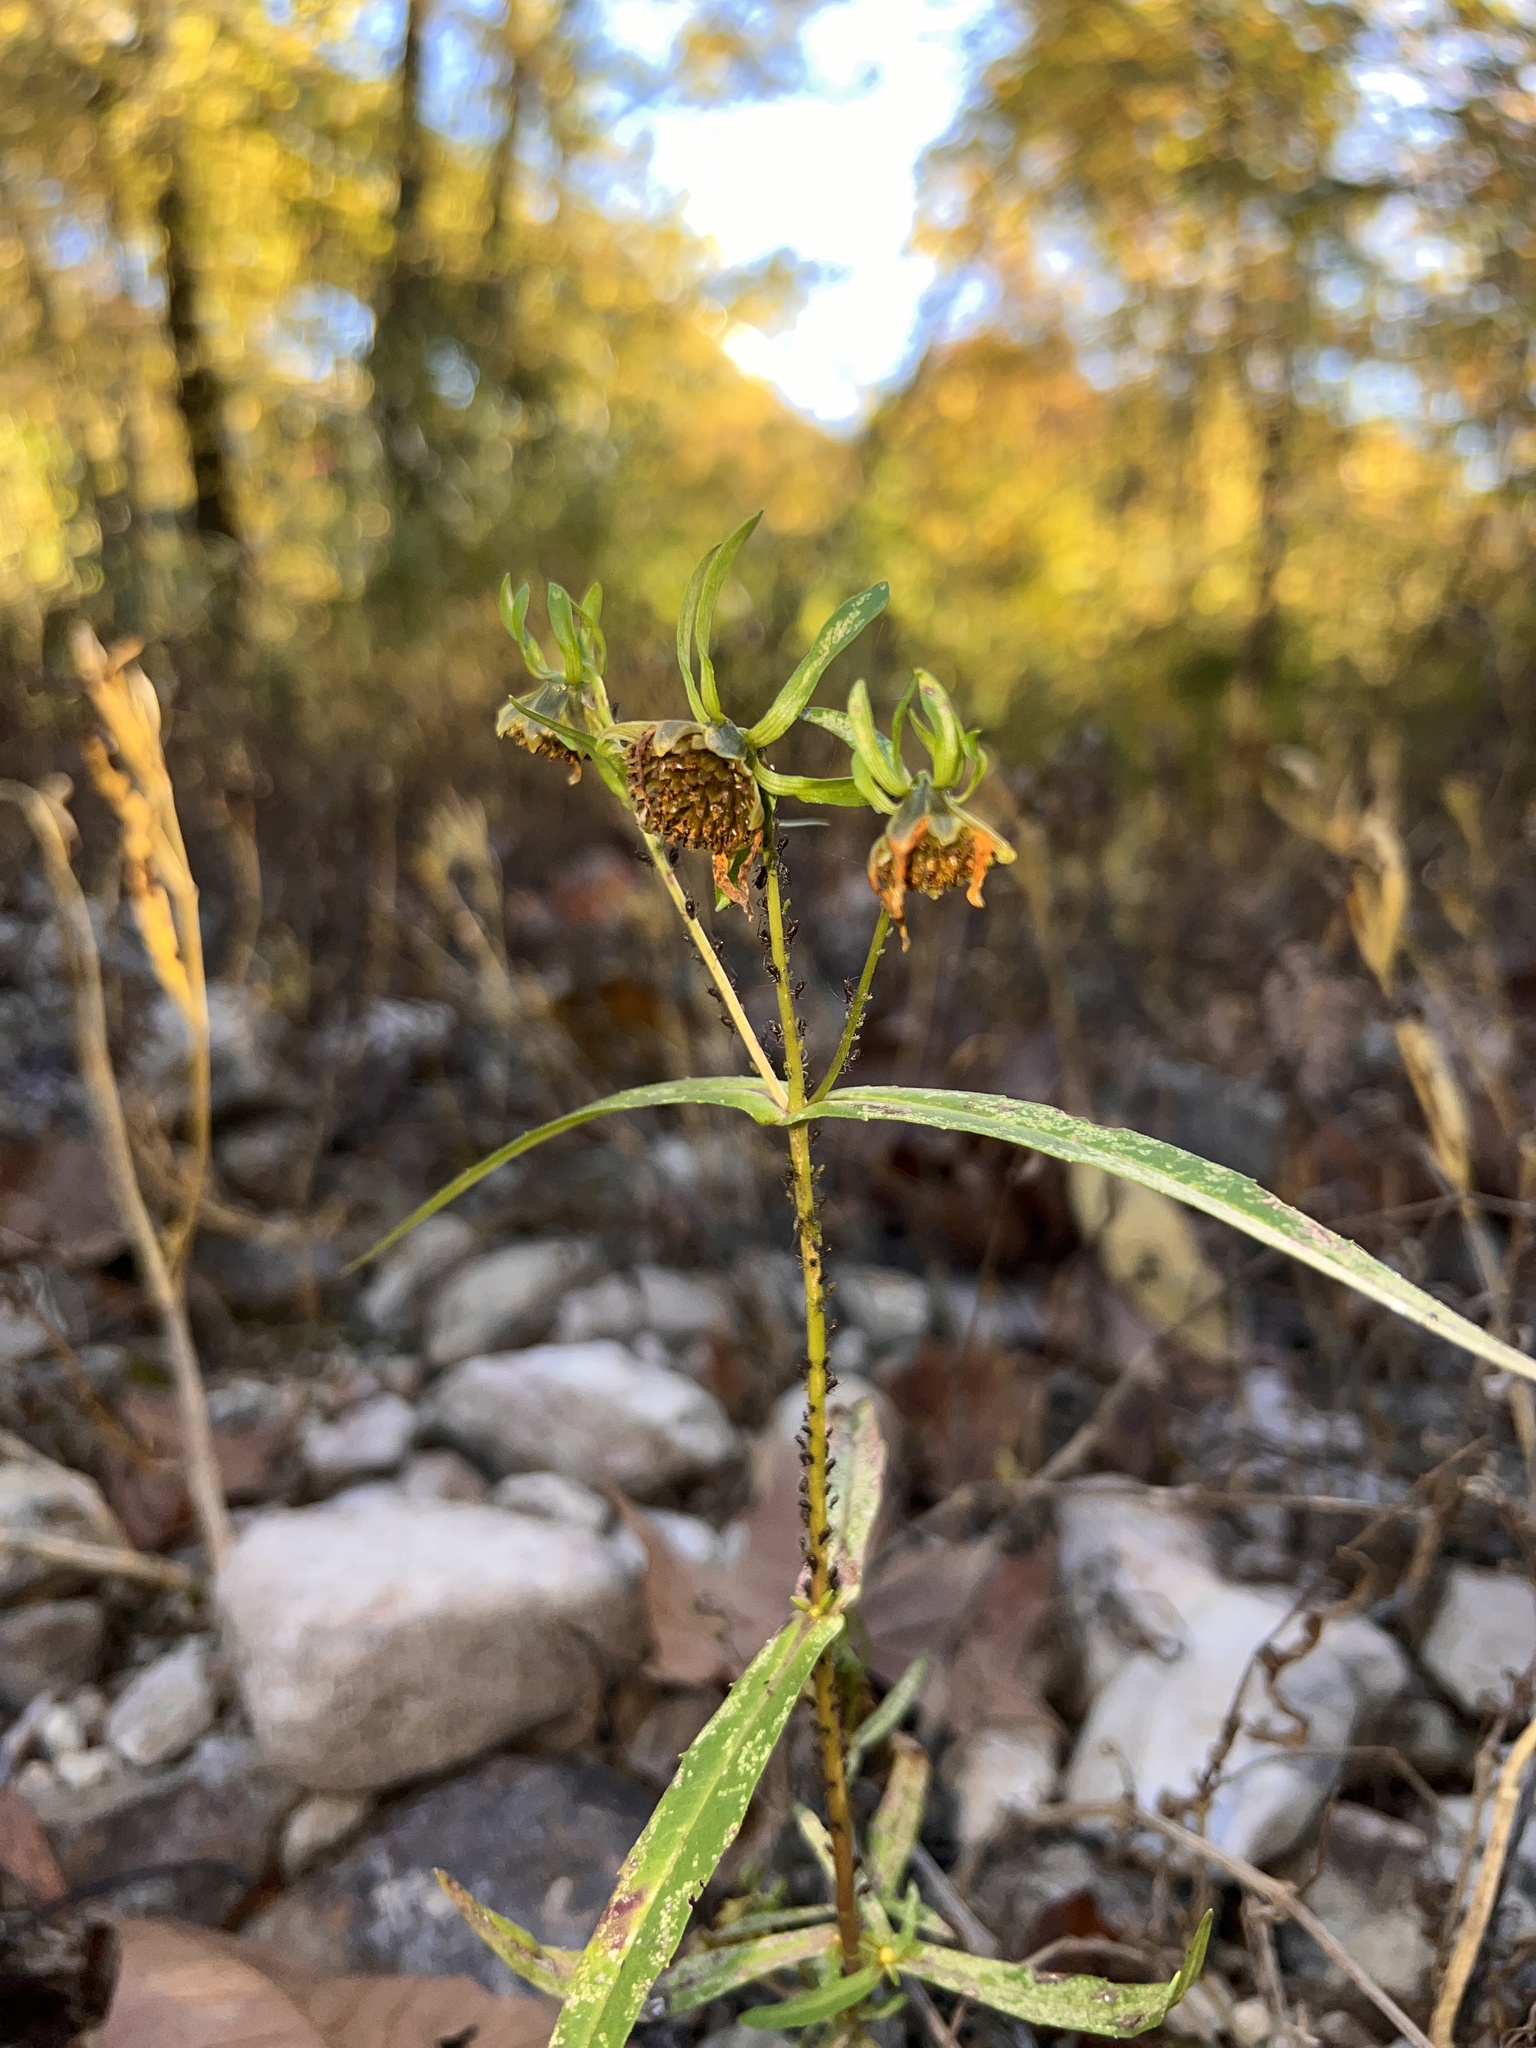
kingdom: Plantae
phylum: Tracheophyta
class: Magnoliopsida
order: Asterales
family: Asteraceae
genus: Bidens
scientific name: Bidens cernua
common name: Nodding bur-marigold
